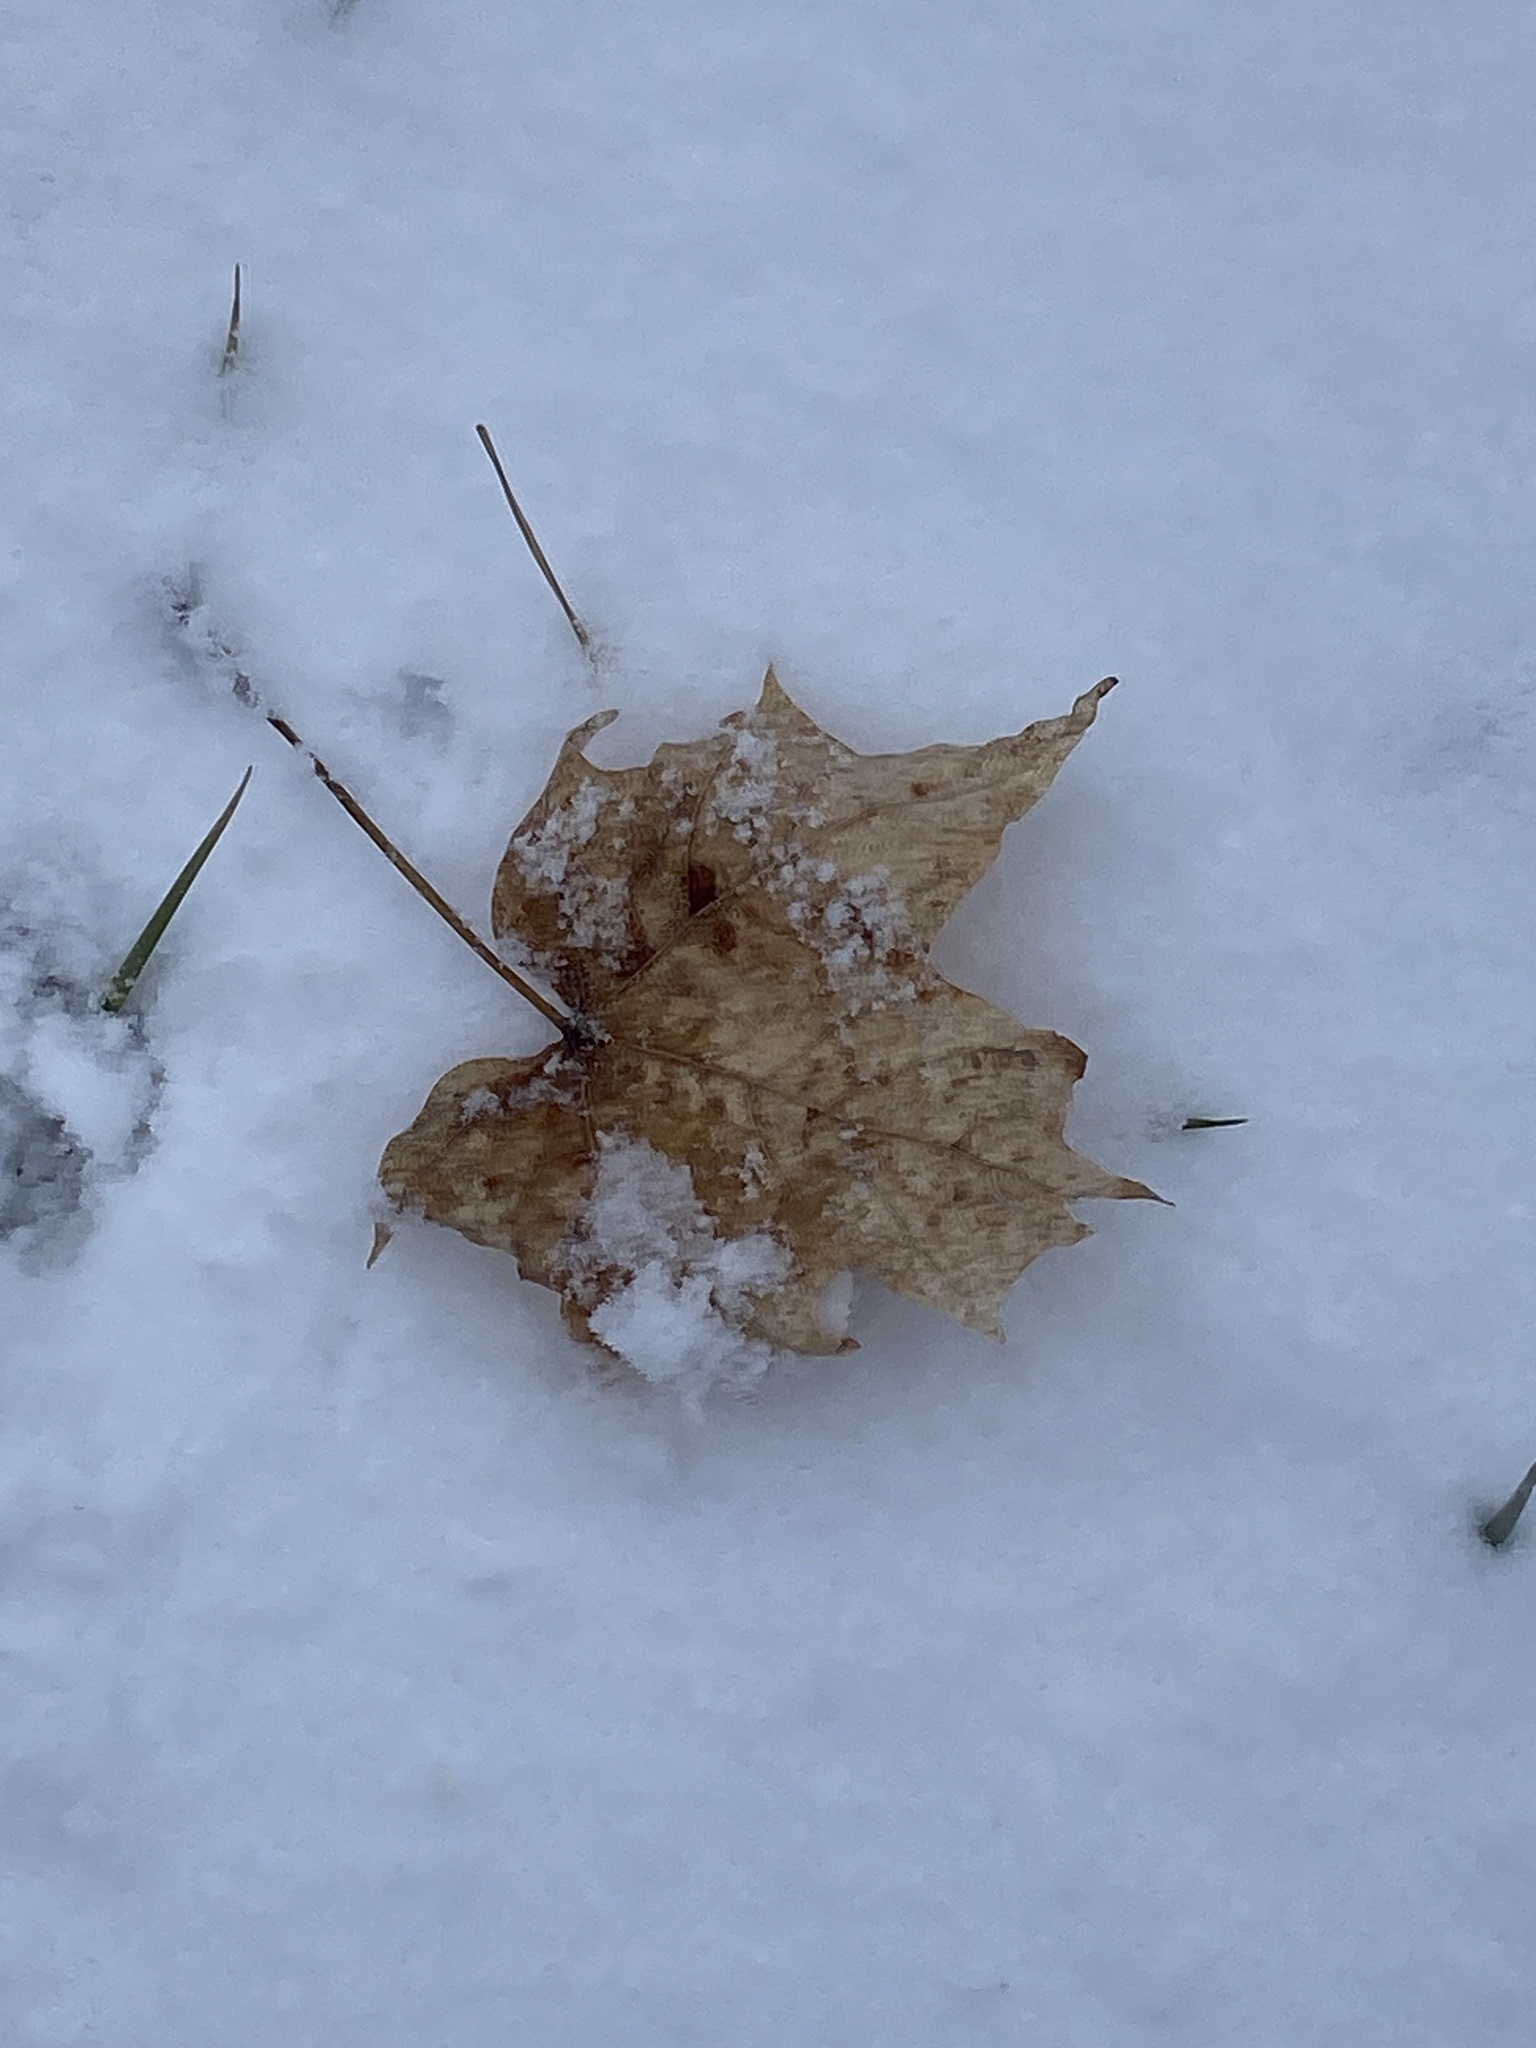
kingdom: Plantae
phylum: Tracheophyta
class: Magnoliopsida
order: Sapindales
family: Sapindaceae
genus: Acer
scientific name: Acer saccharum
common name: Sugar maple
